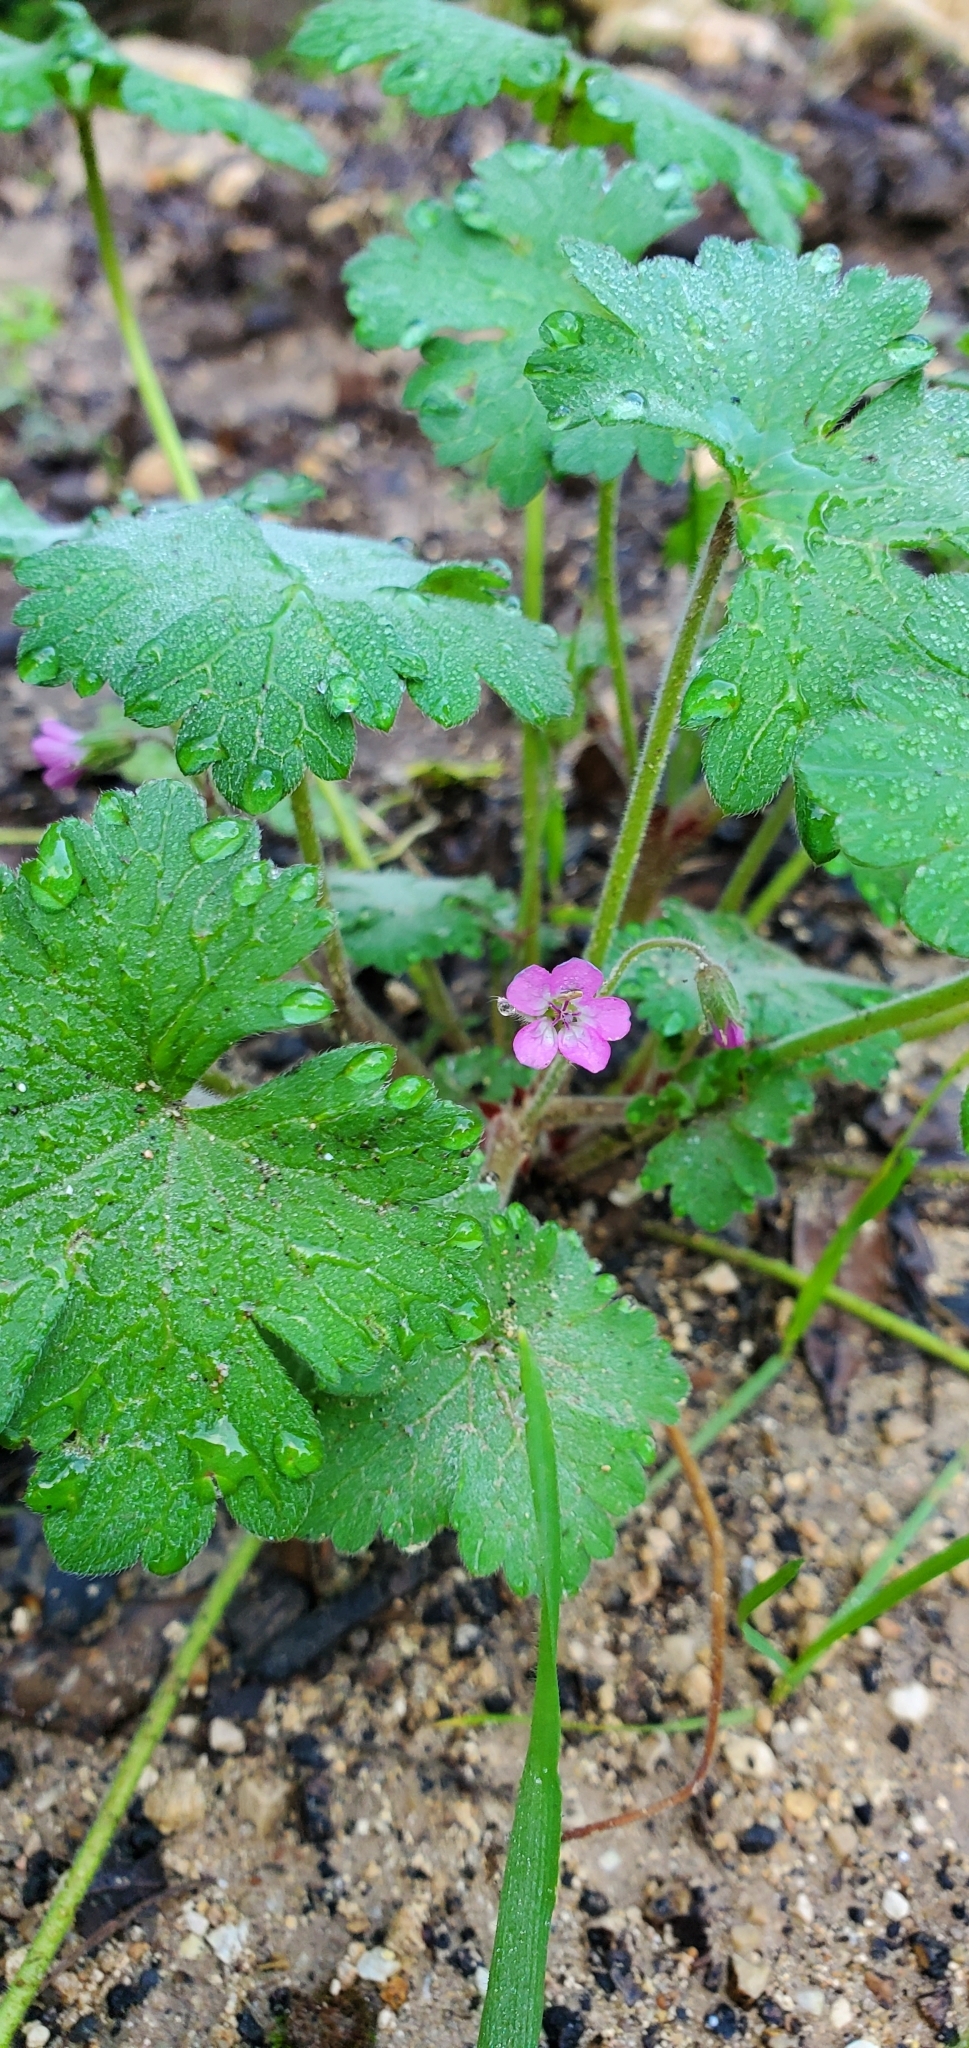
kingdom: Plantae
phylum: Tracheophyta
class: Magnoliopsida
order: Geraniales
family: Geraniaceae
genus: Geranium
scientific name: Geranium rotundifolium
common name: Round-leaved crane's-bill
